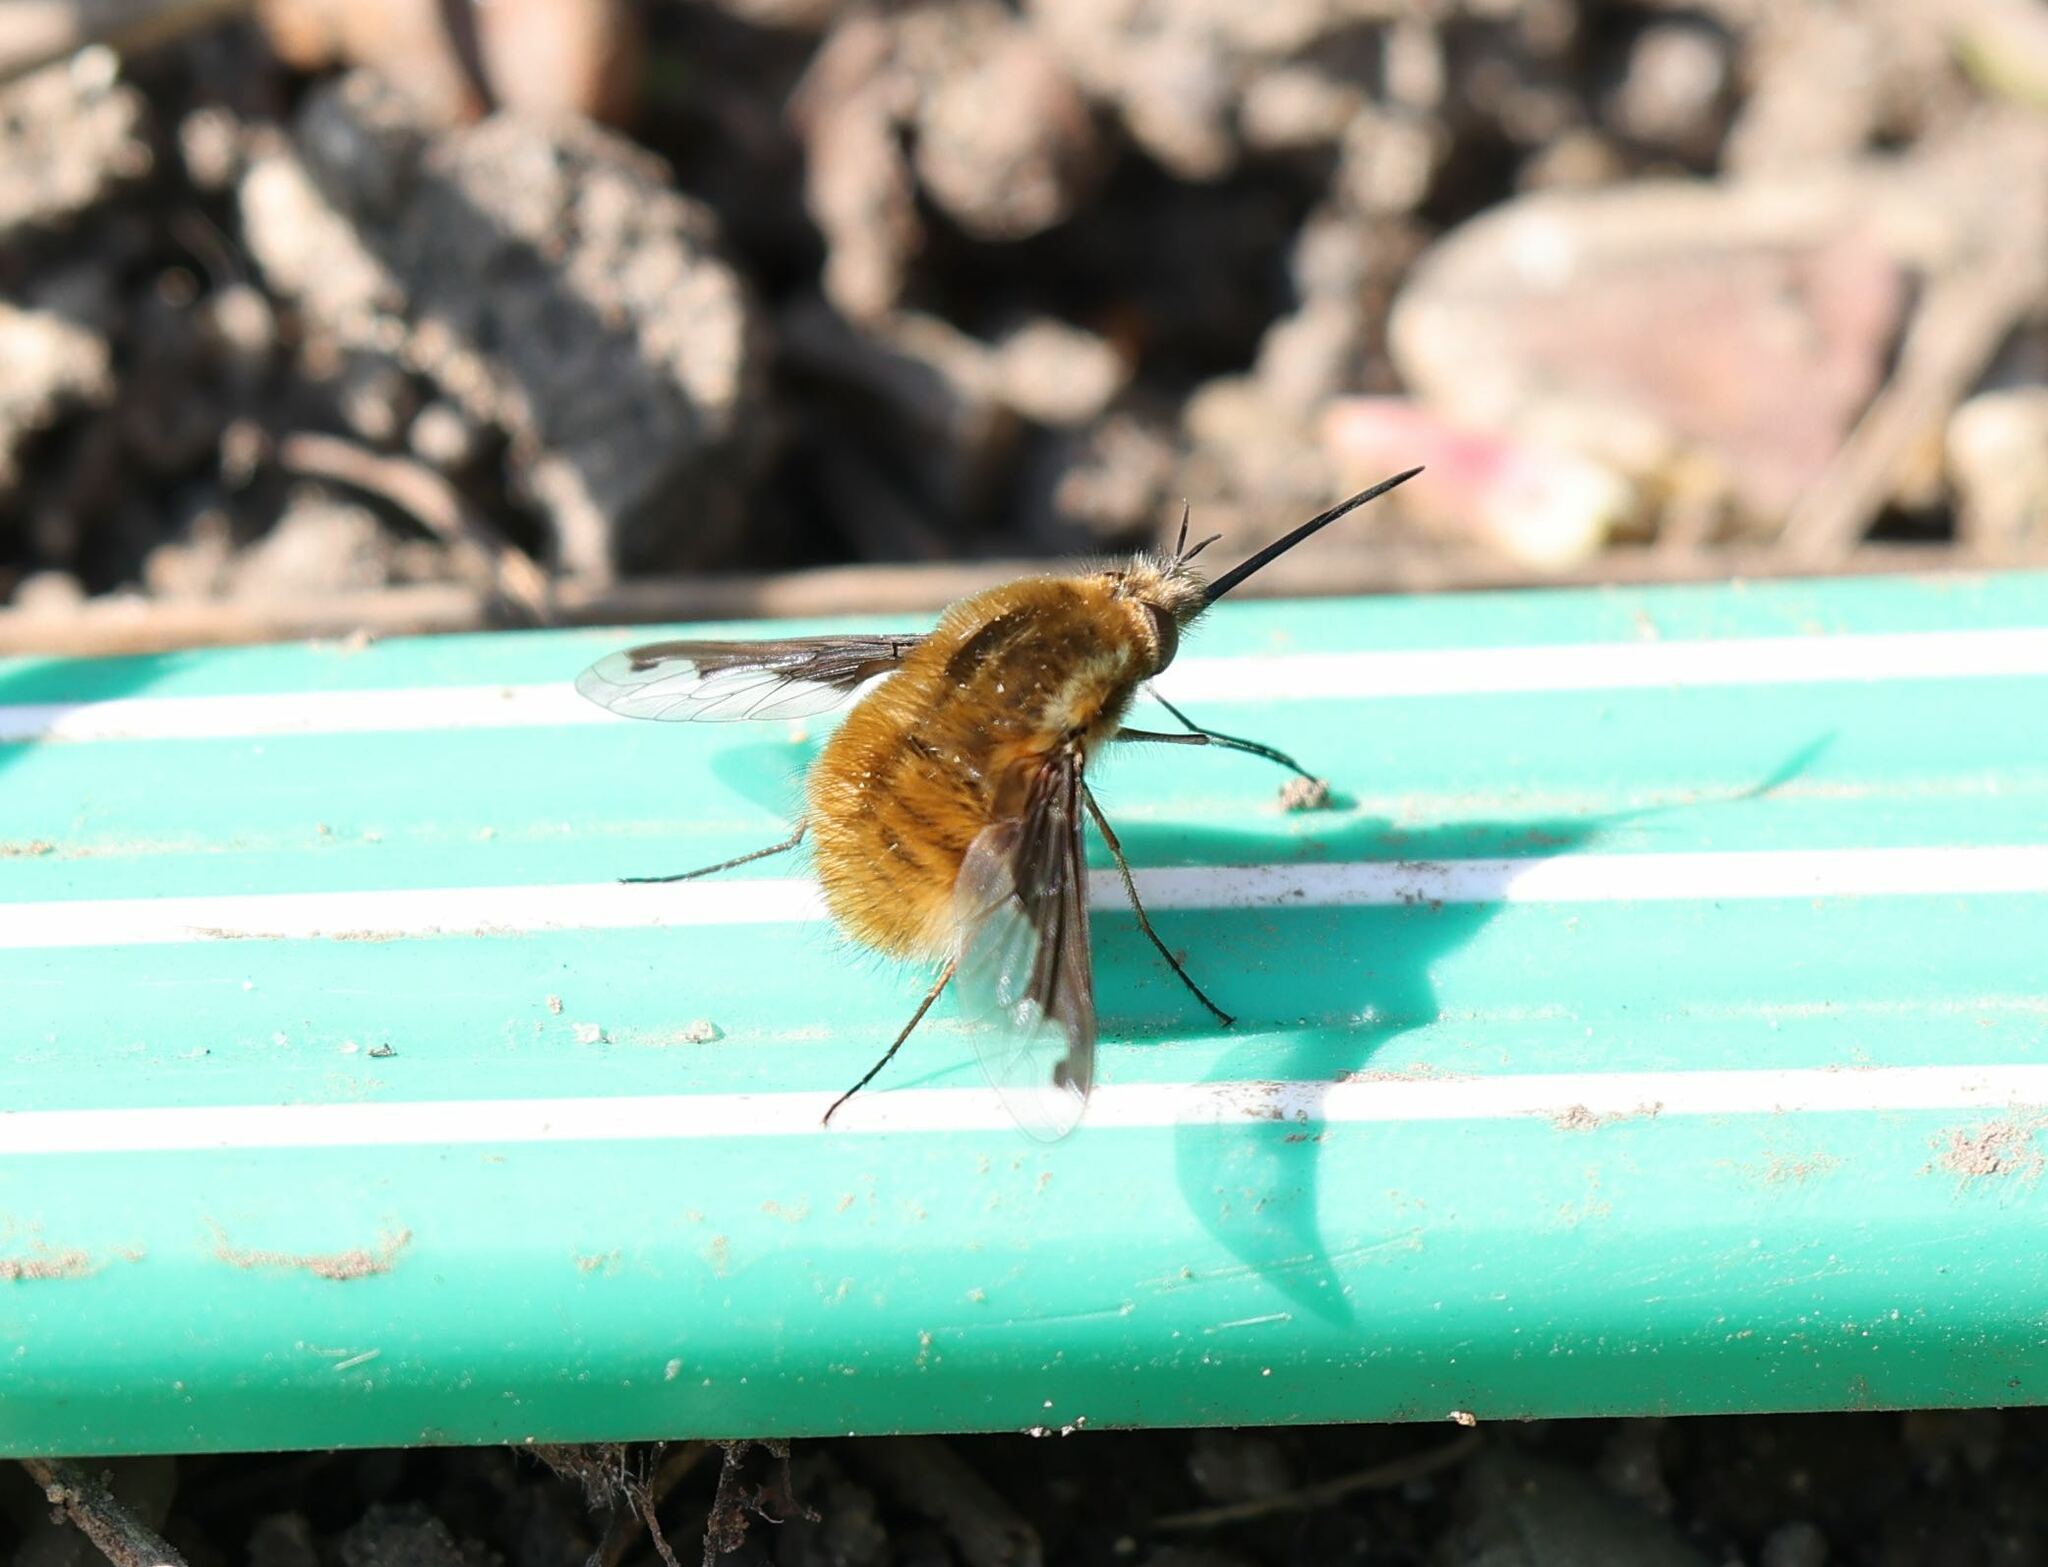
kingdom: Animalia
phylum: Arthropoda
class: Insecta
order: Diptera
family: Bombyliidae
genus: Bombylius
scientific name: Bombylius major
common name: Bee fly
